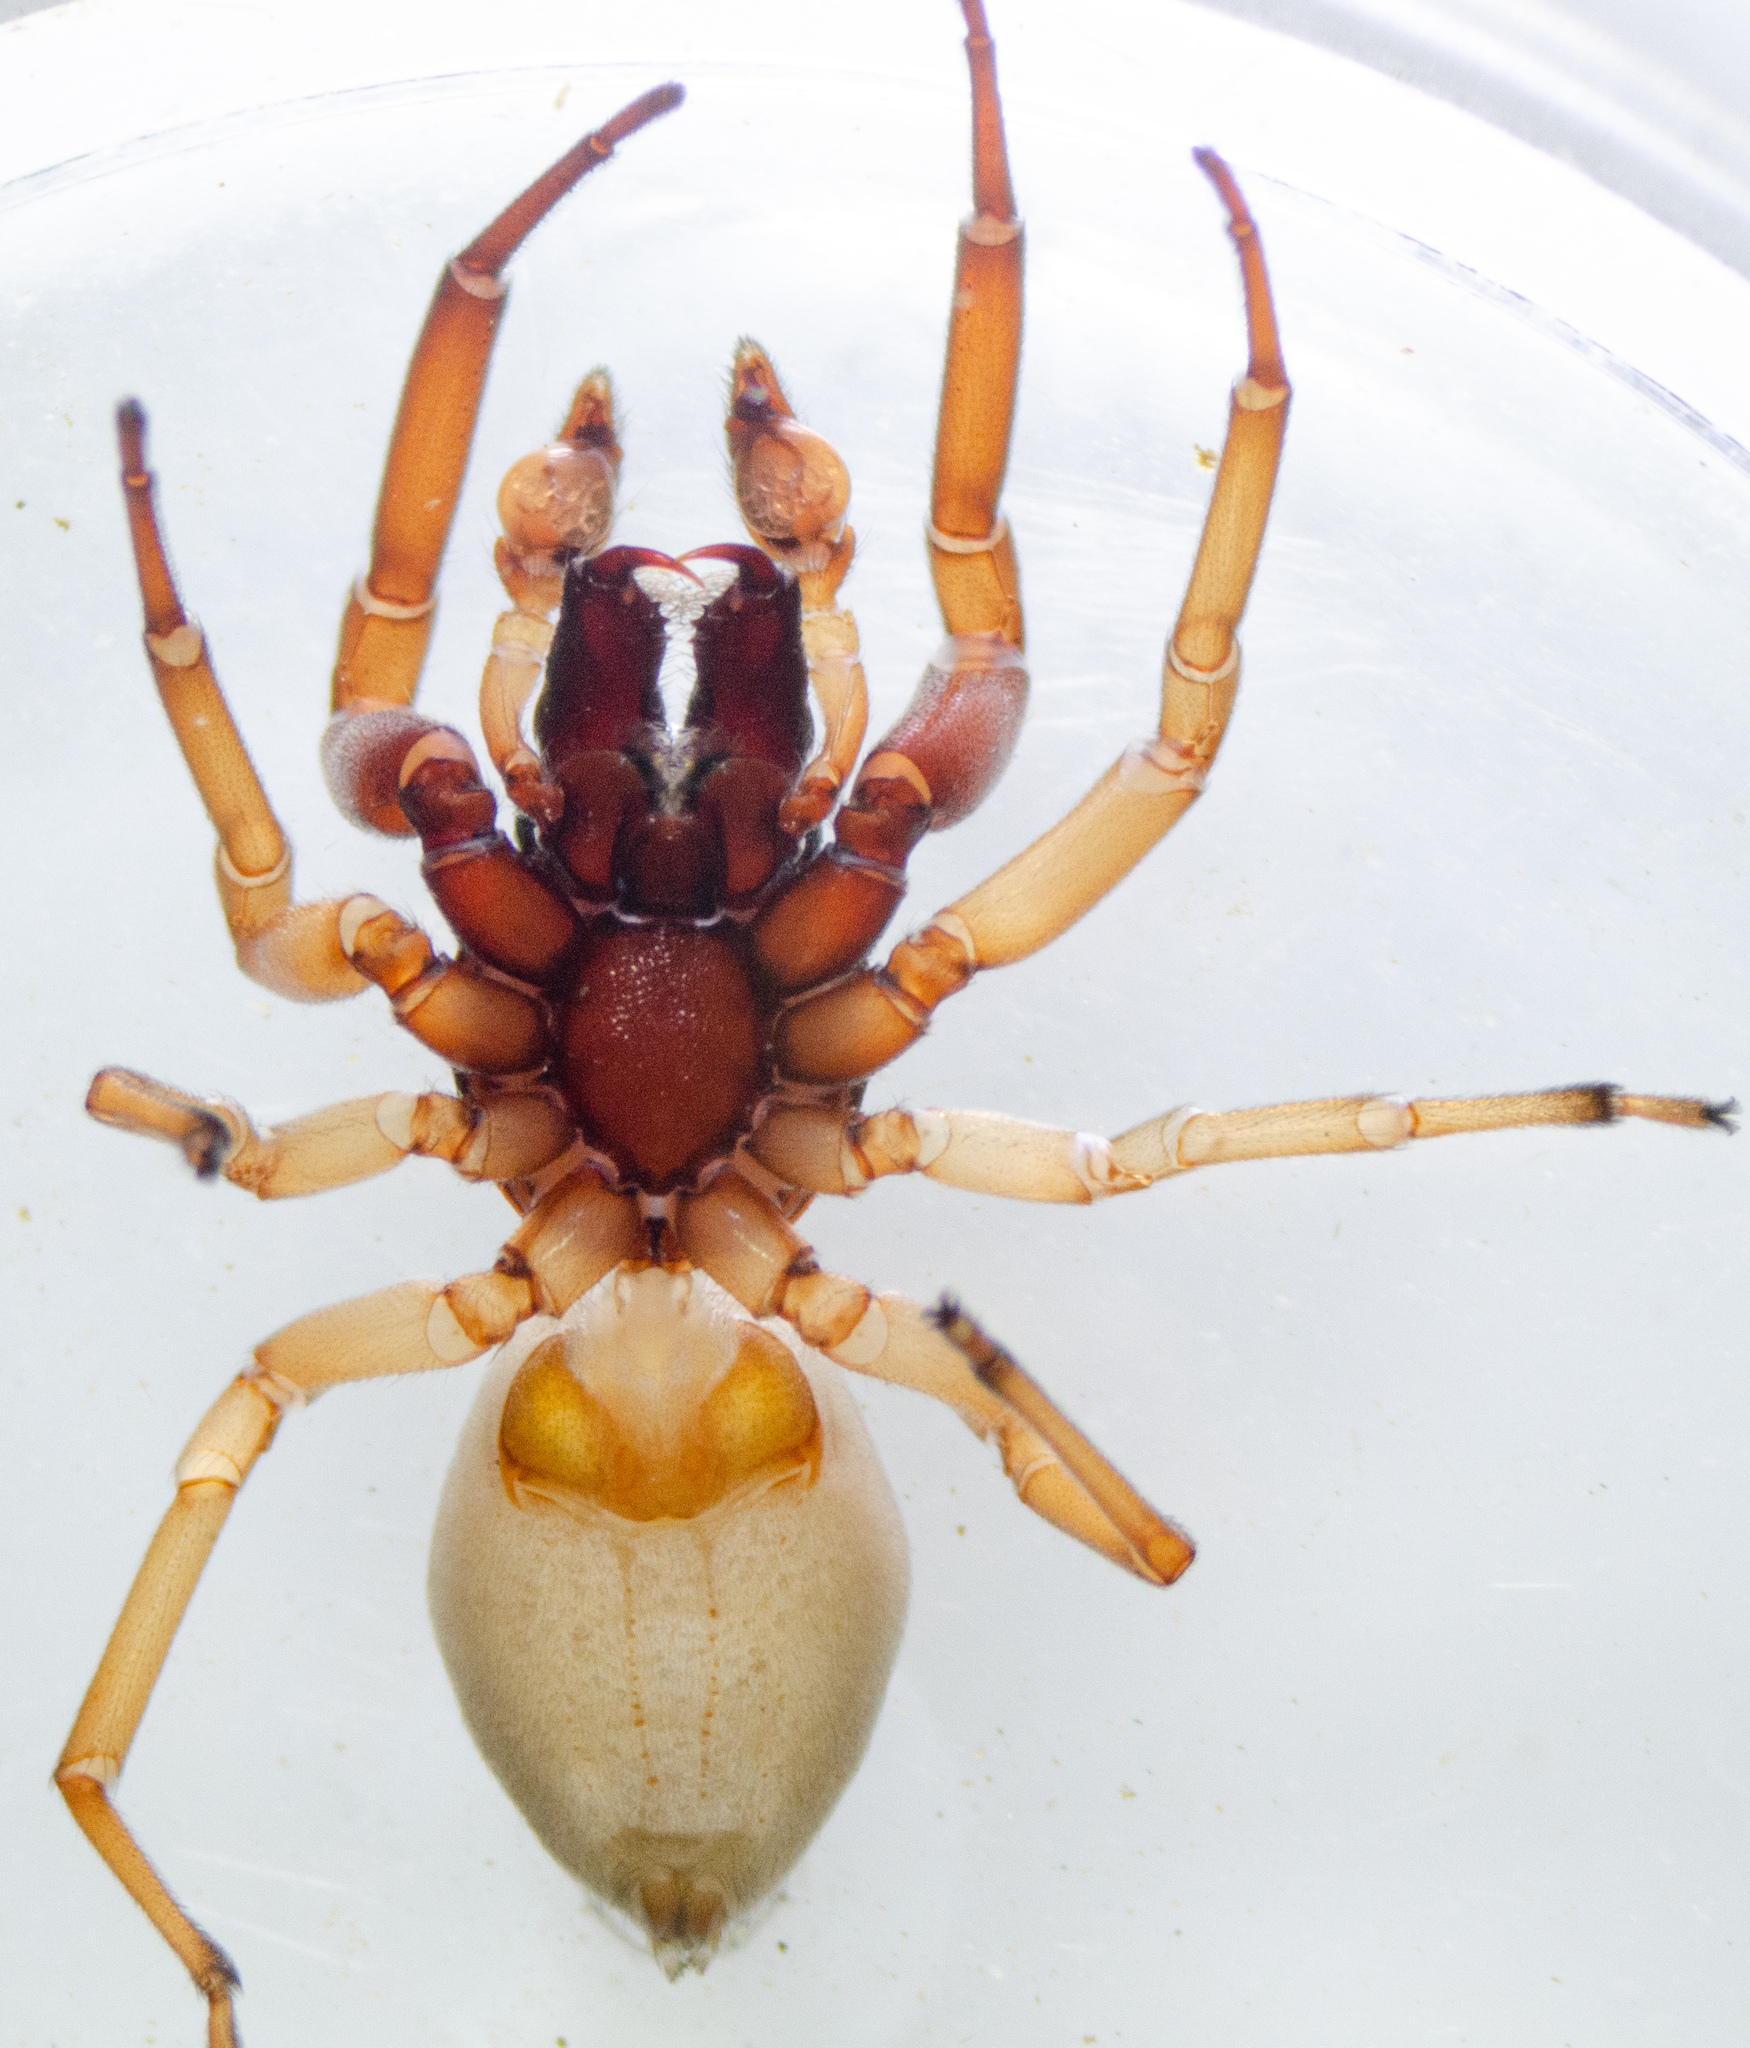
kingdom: Animalia
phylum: Arthropoda
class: Arachnida
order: Araneae
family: Trachelidae
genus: Trachelas
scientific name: Trachelas pacificus
